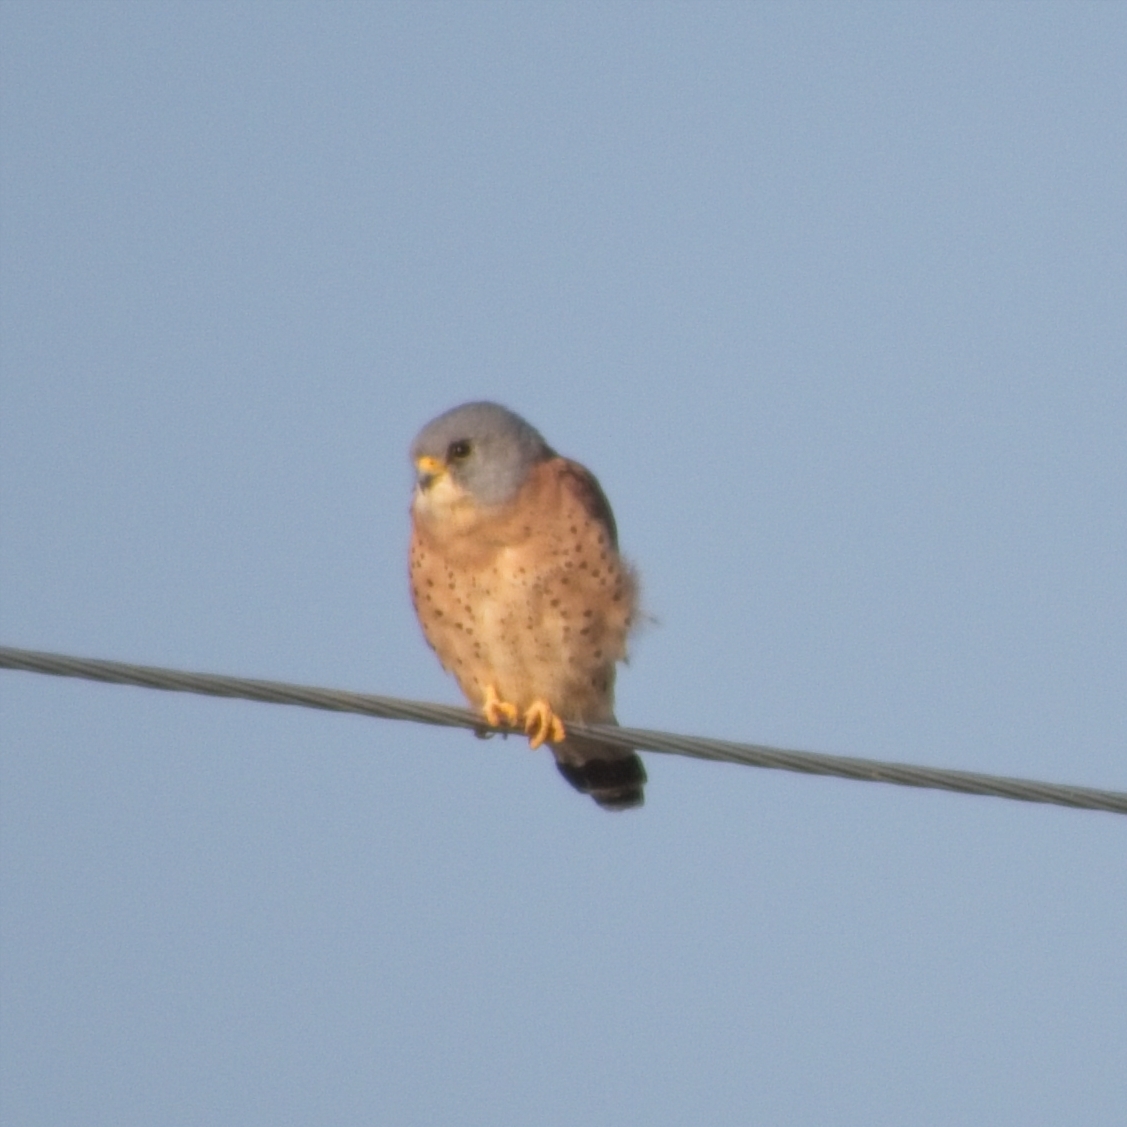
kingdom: Animalia
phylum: Chordata
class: Aves
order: Falconiformes
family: Falconidae
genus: Falco
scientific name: Falco naumanni
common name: Lesser kestrel
